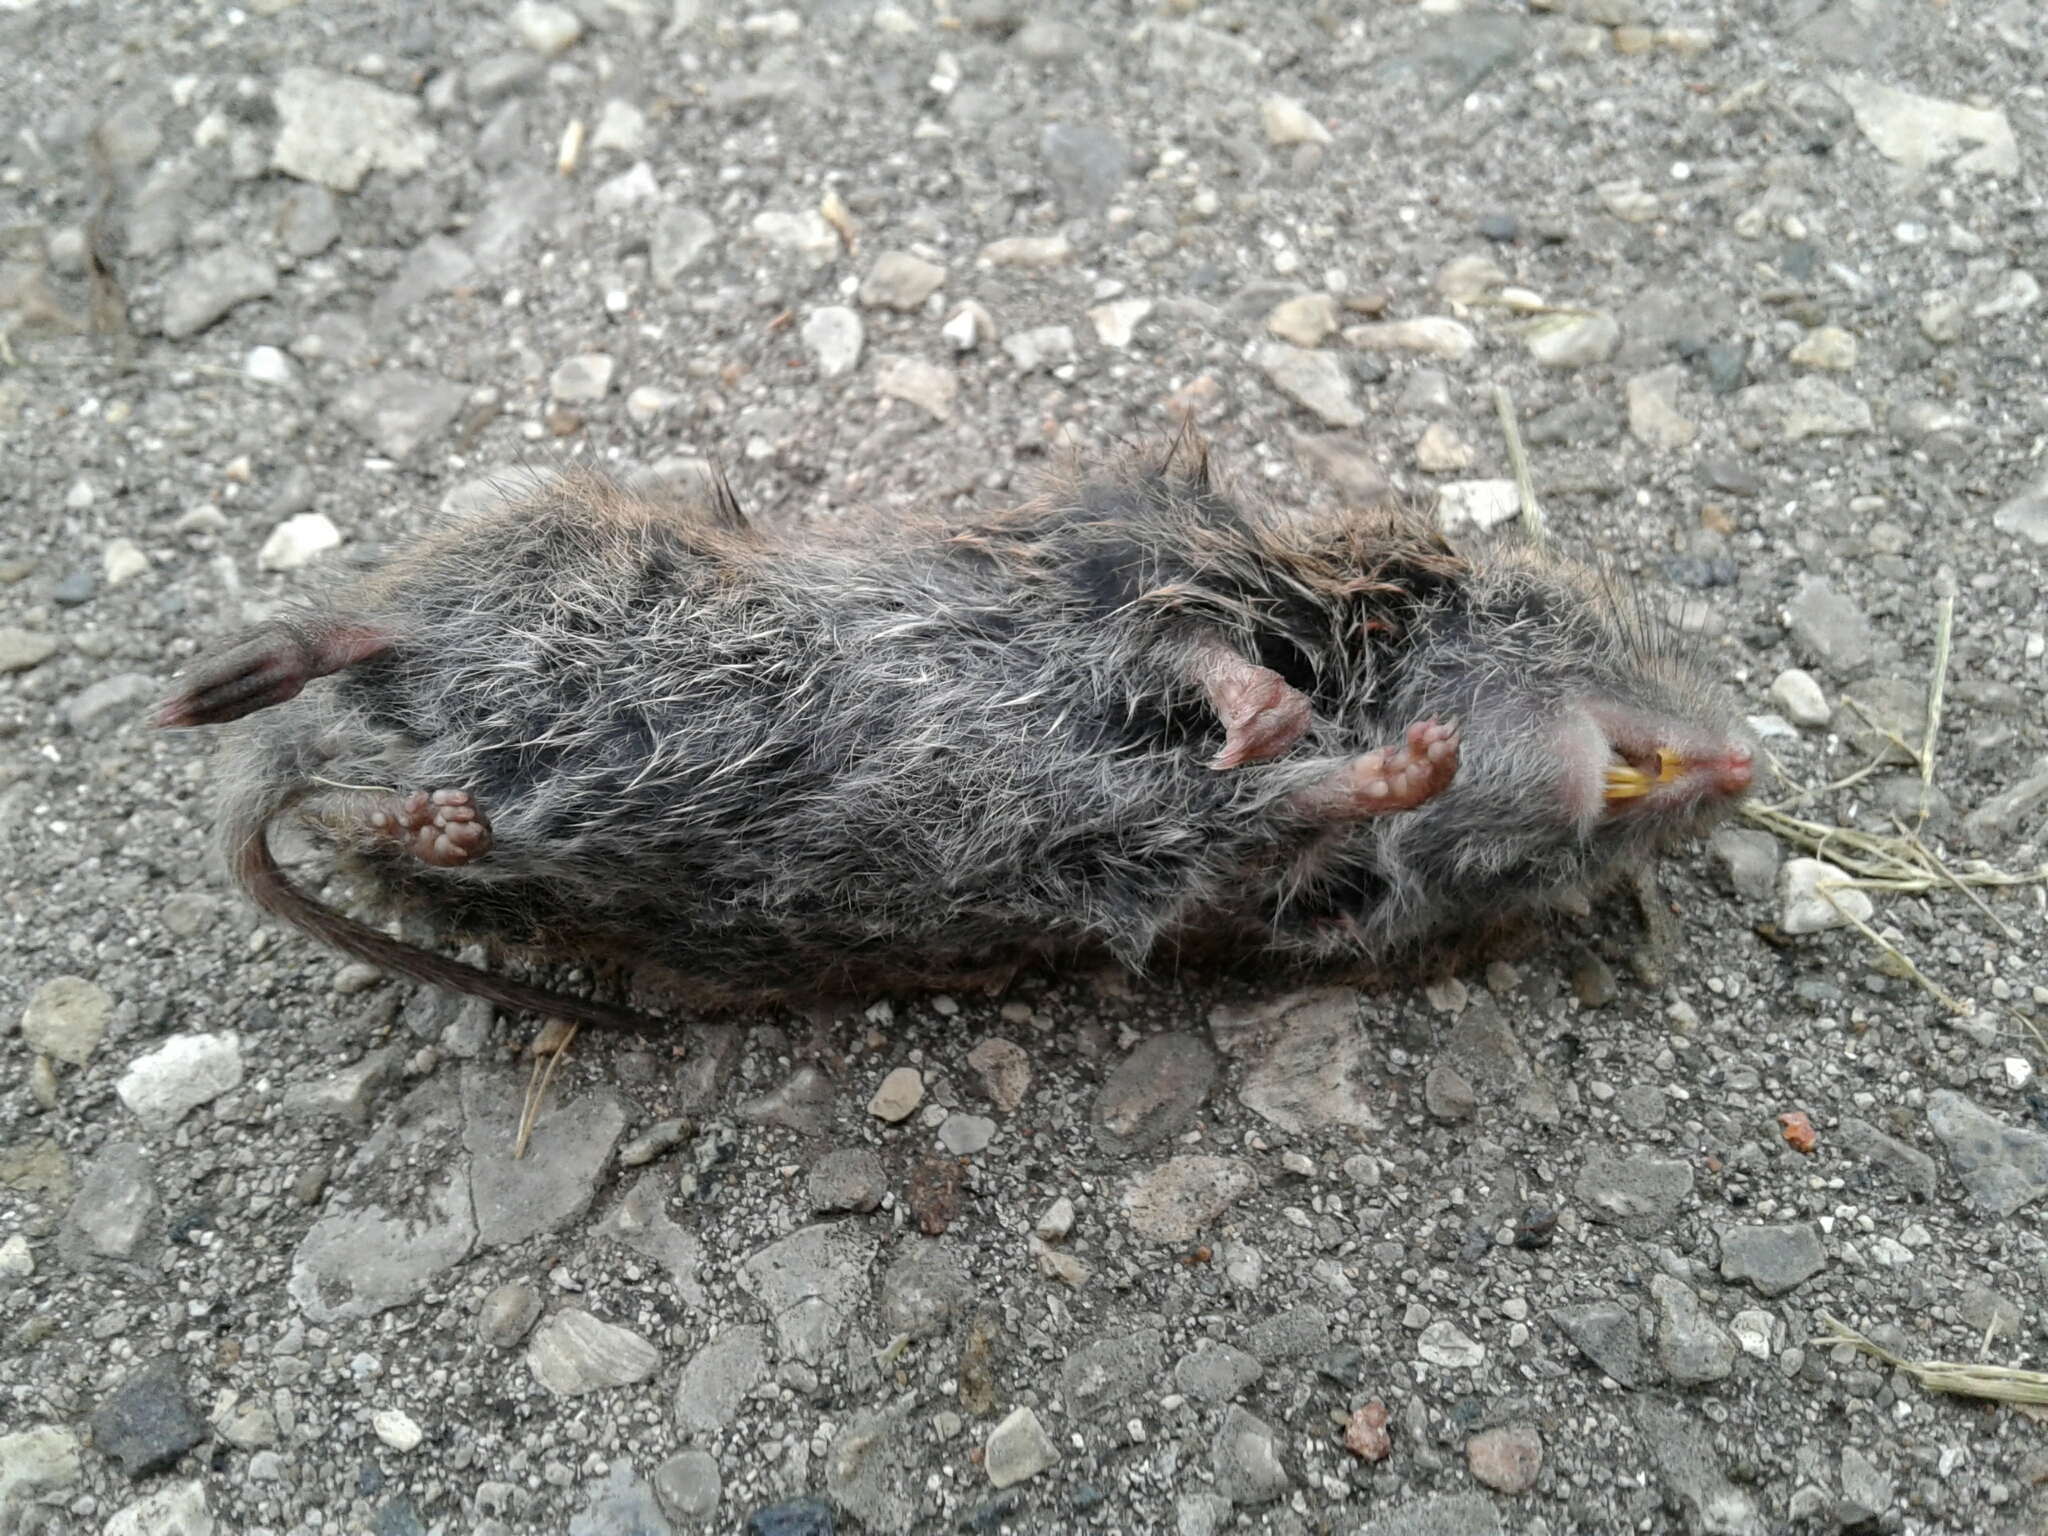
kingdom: Animalia
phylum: Chordata
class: Mammalia
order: Rodentia
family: Cricetidae
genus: Microtus
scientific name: Microtus pennsylvanicus
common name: Meadow vole
